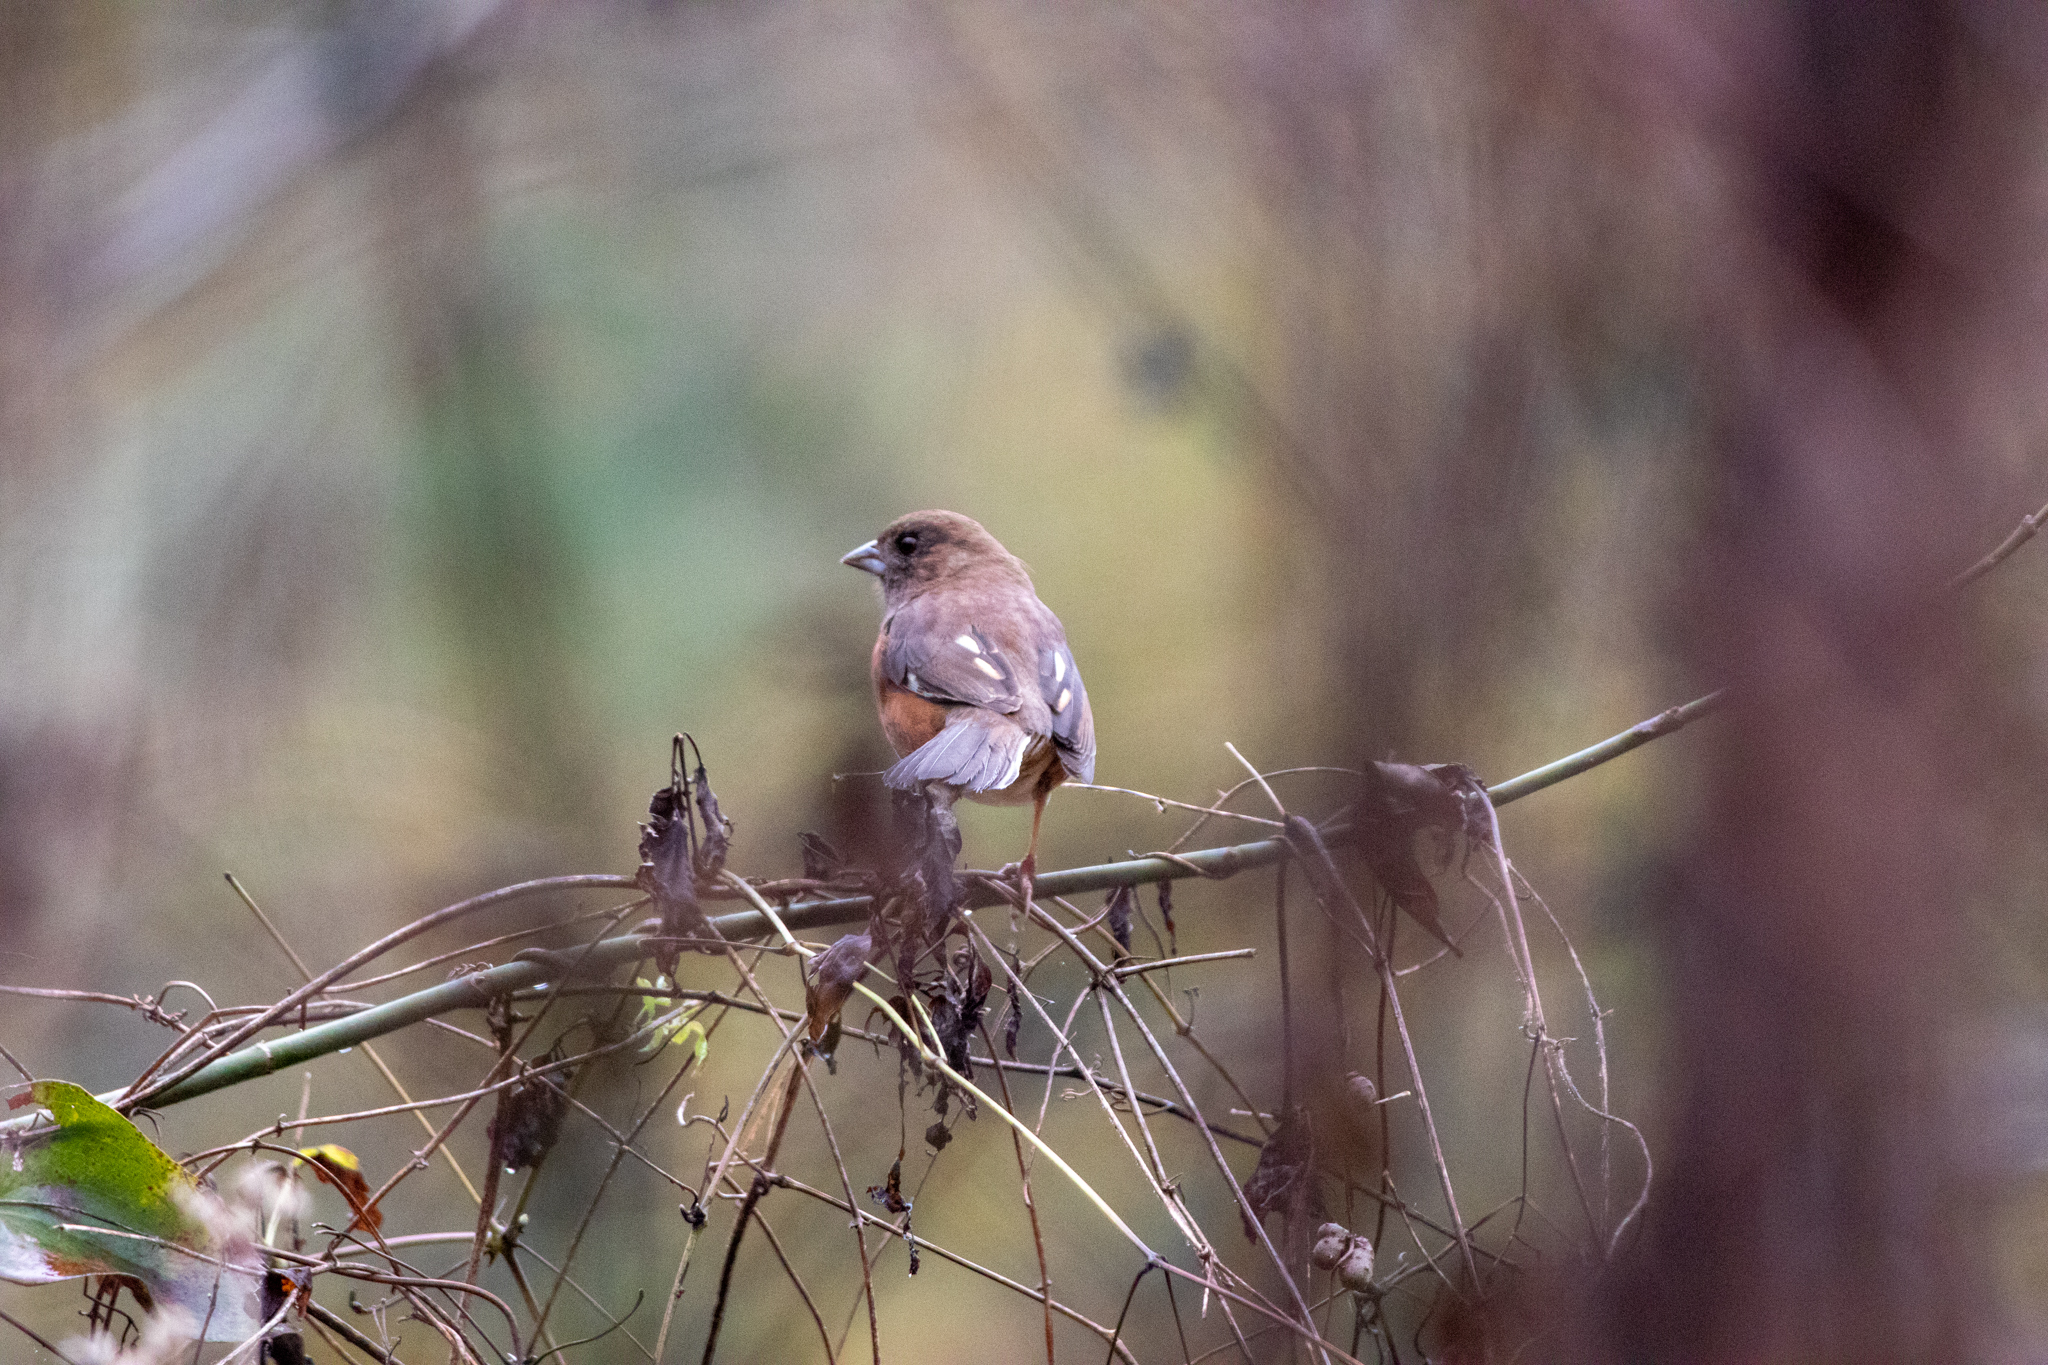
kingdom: Animalia
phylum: Chordata
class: Aves
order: Passeriformes
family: Passerellidae
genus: Pipilo
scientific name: Pipilo erythrophthalmus
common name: Eastern towhee
